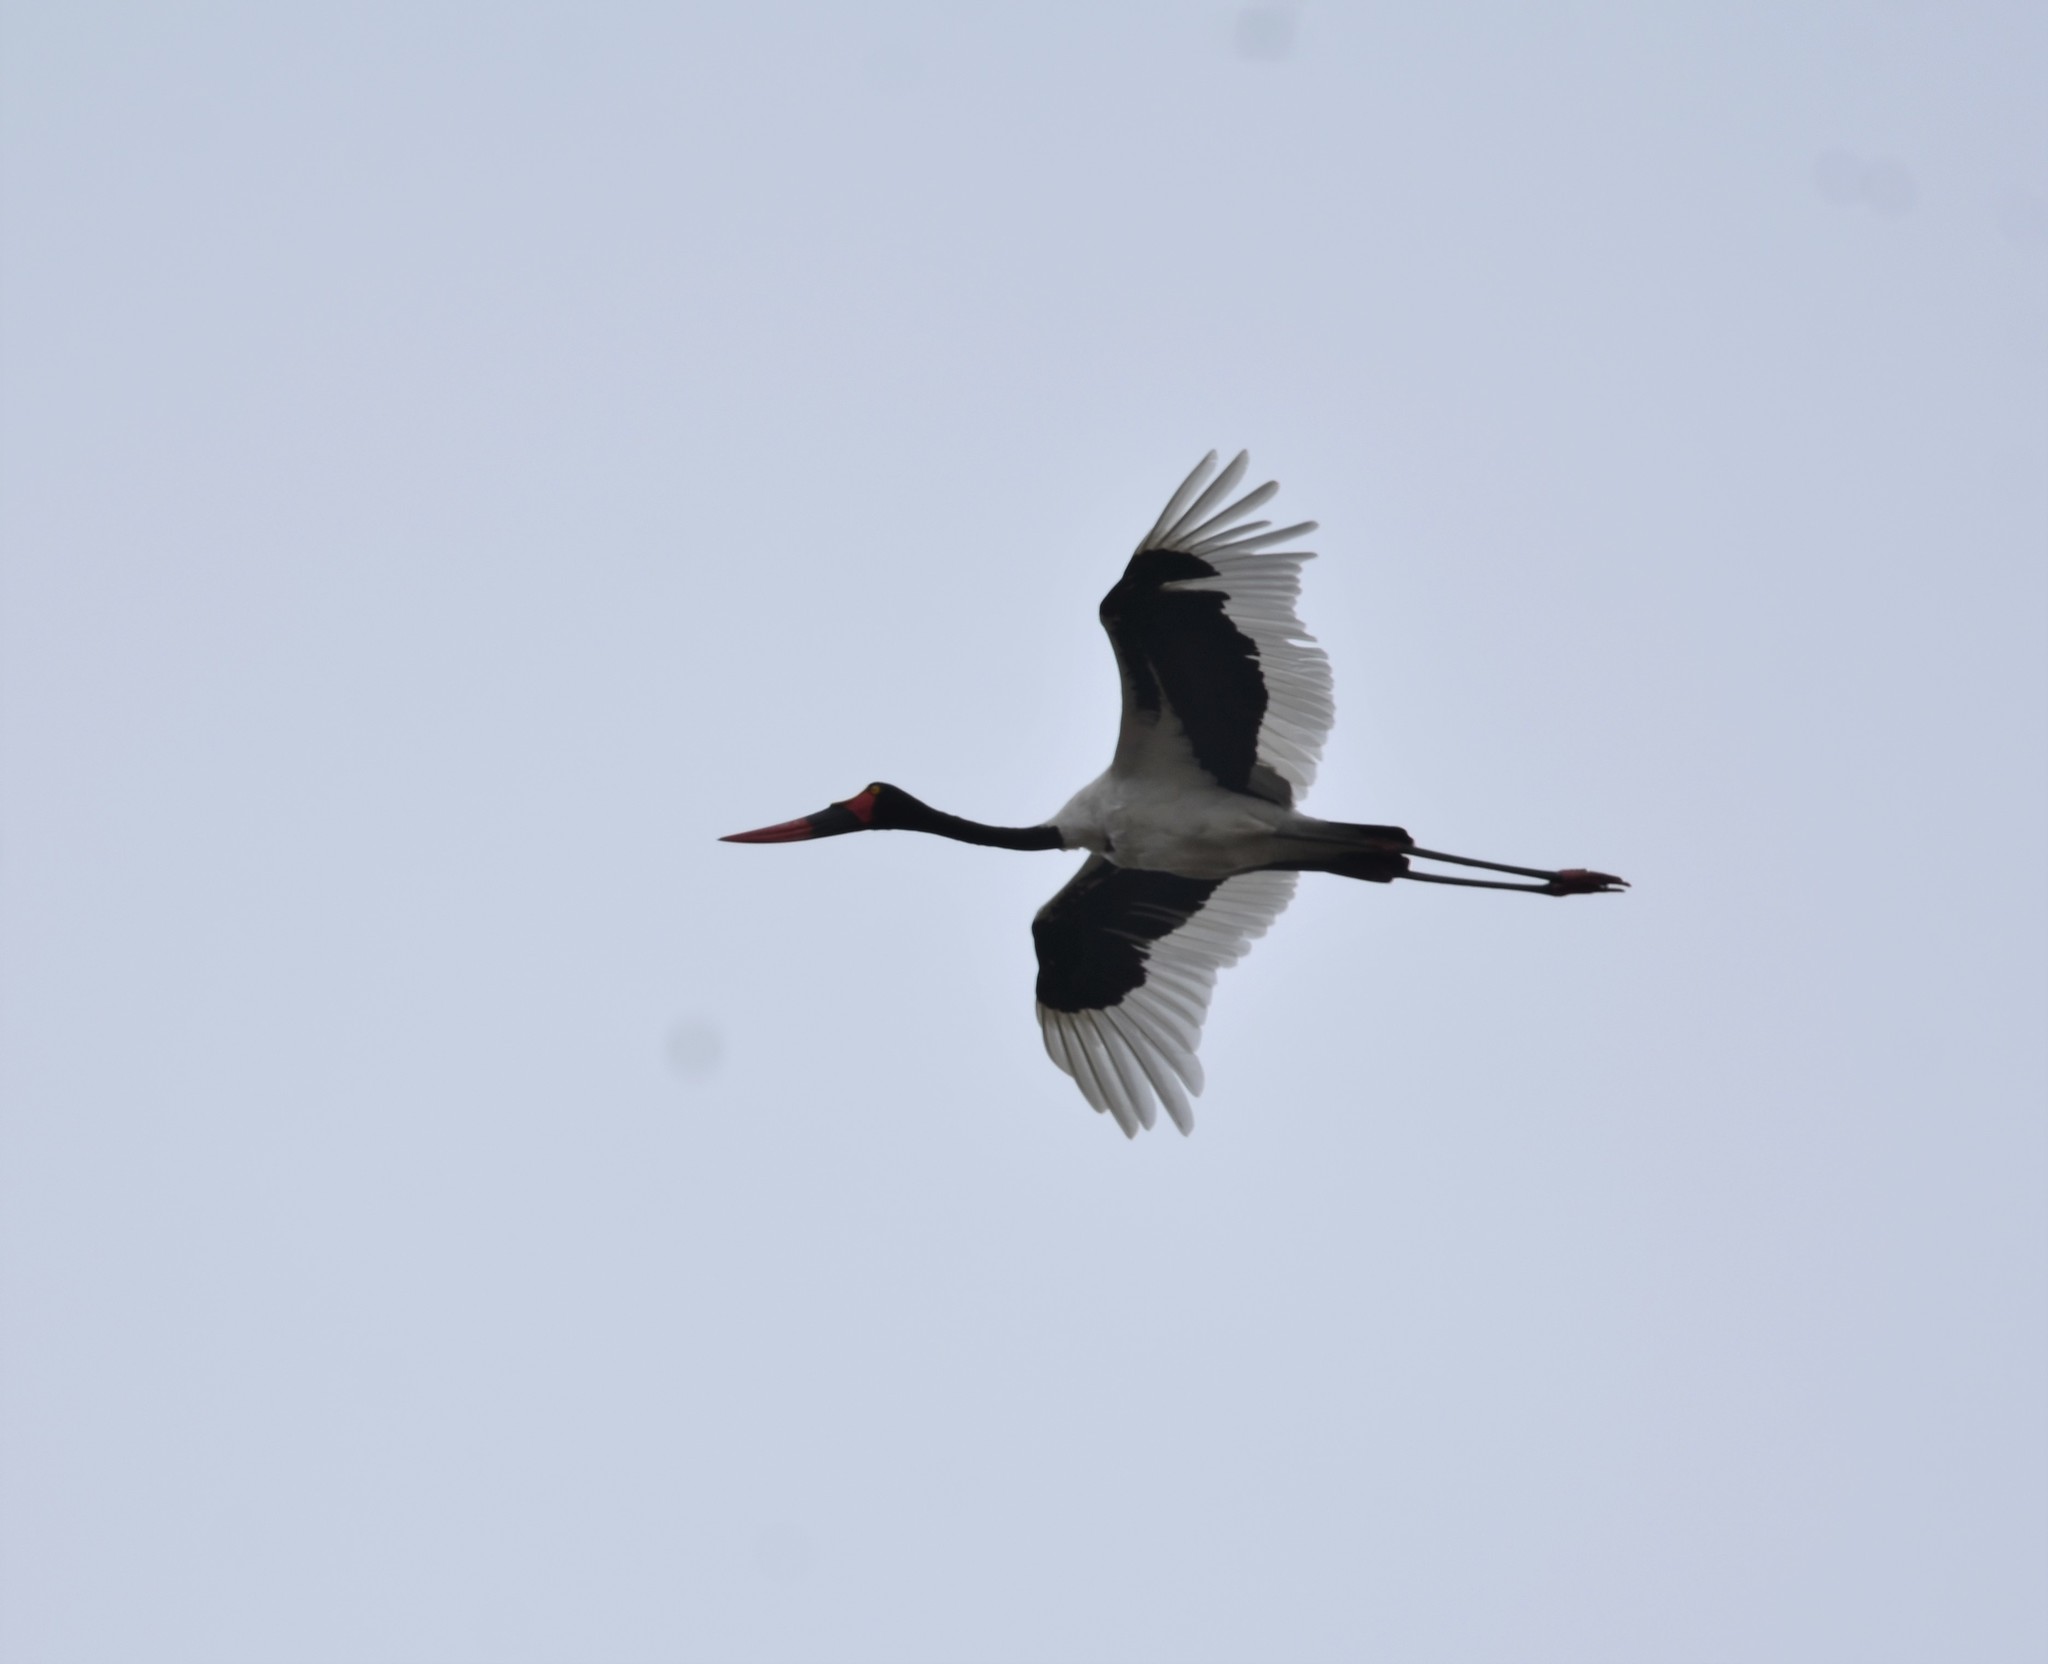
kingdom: Animalia
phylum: Chordata
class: Aves
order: Ciconiiformes
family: Ciconiidae
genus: Ephippiorhynchus
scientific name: Ephippiorhynchus senegalensis
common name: Saddle-billed stork
